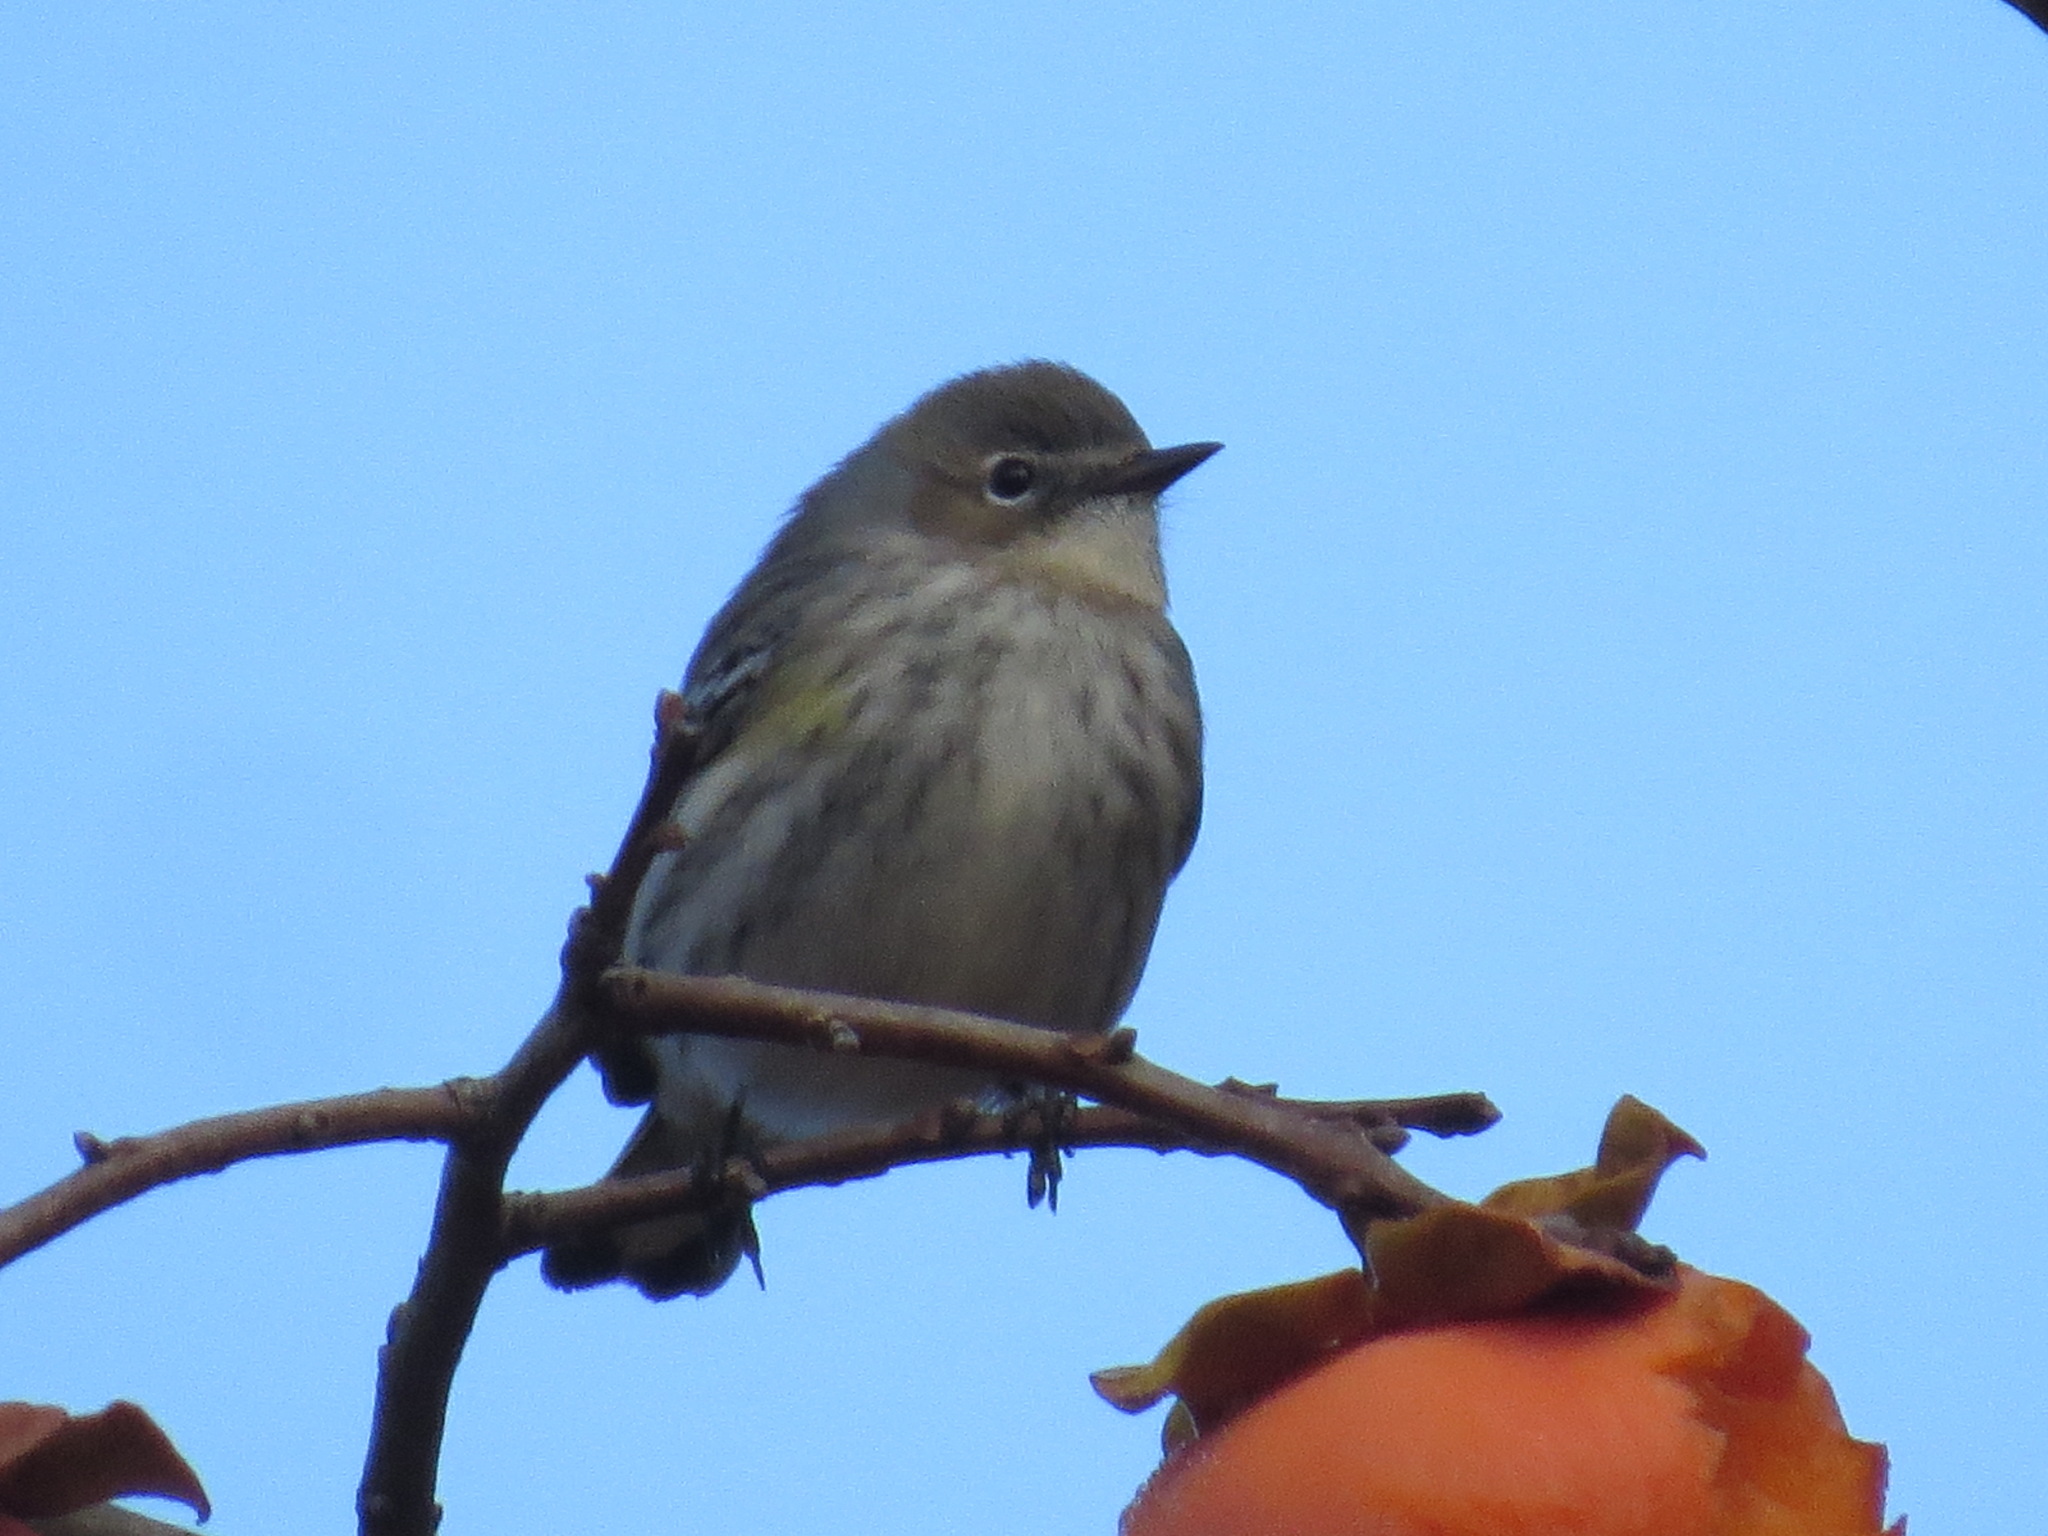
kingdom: Animalia
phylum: Chordata
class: Aves
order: Passeriformes
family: Parulidae
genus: Setophaga
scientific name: Setophaga coronata
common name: Myrtle warbler
